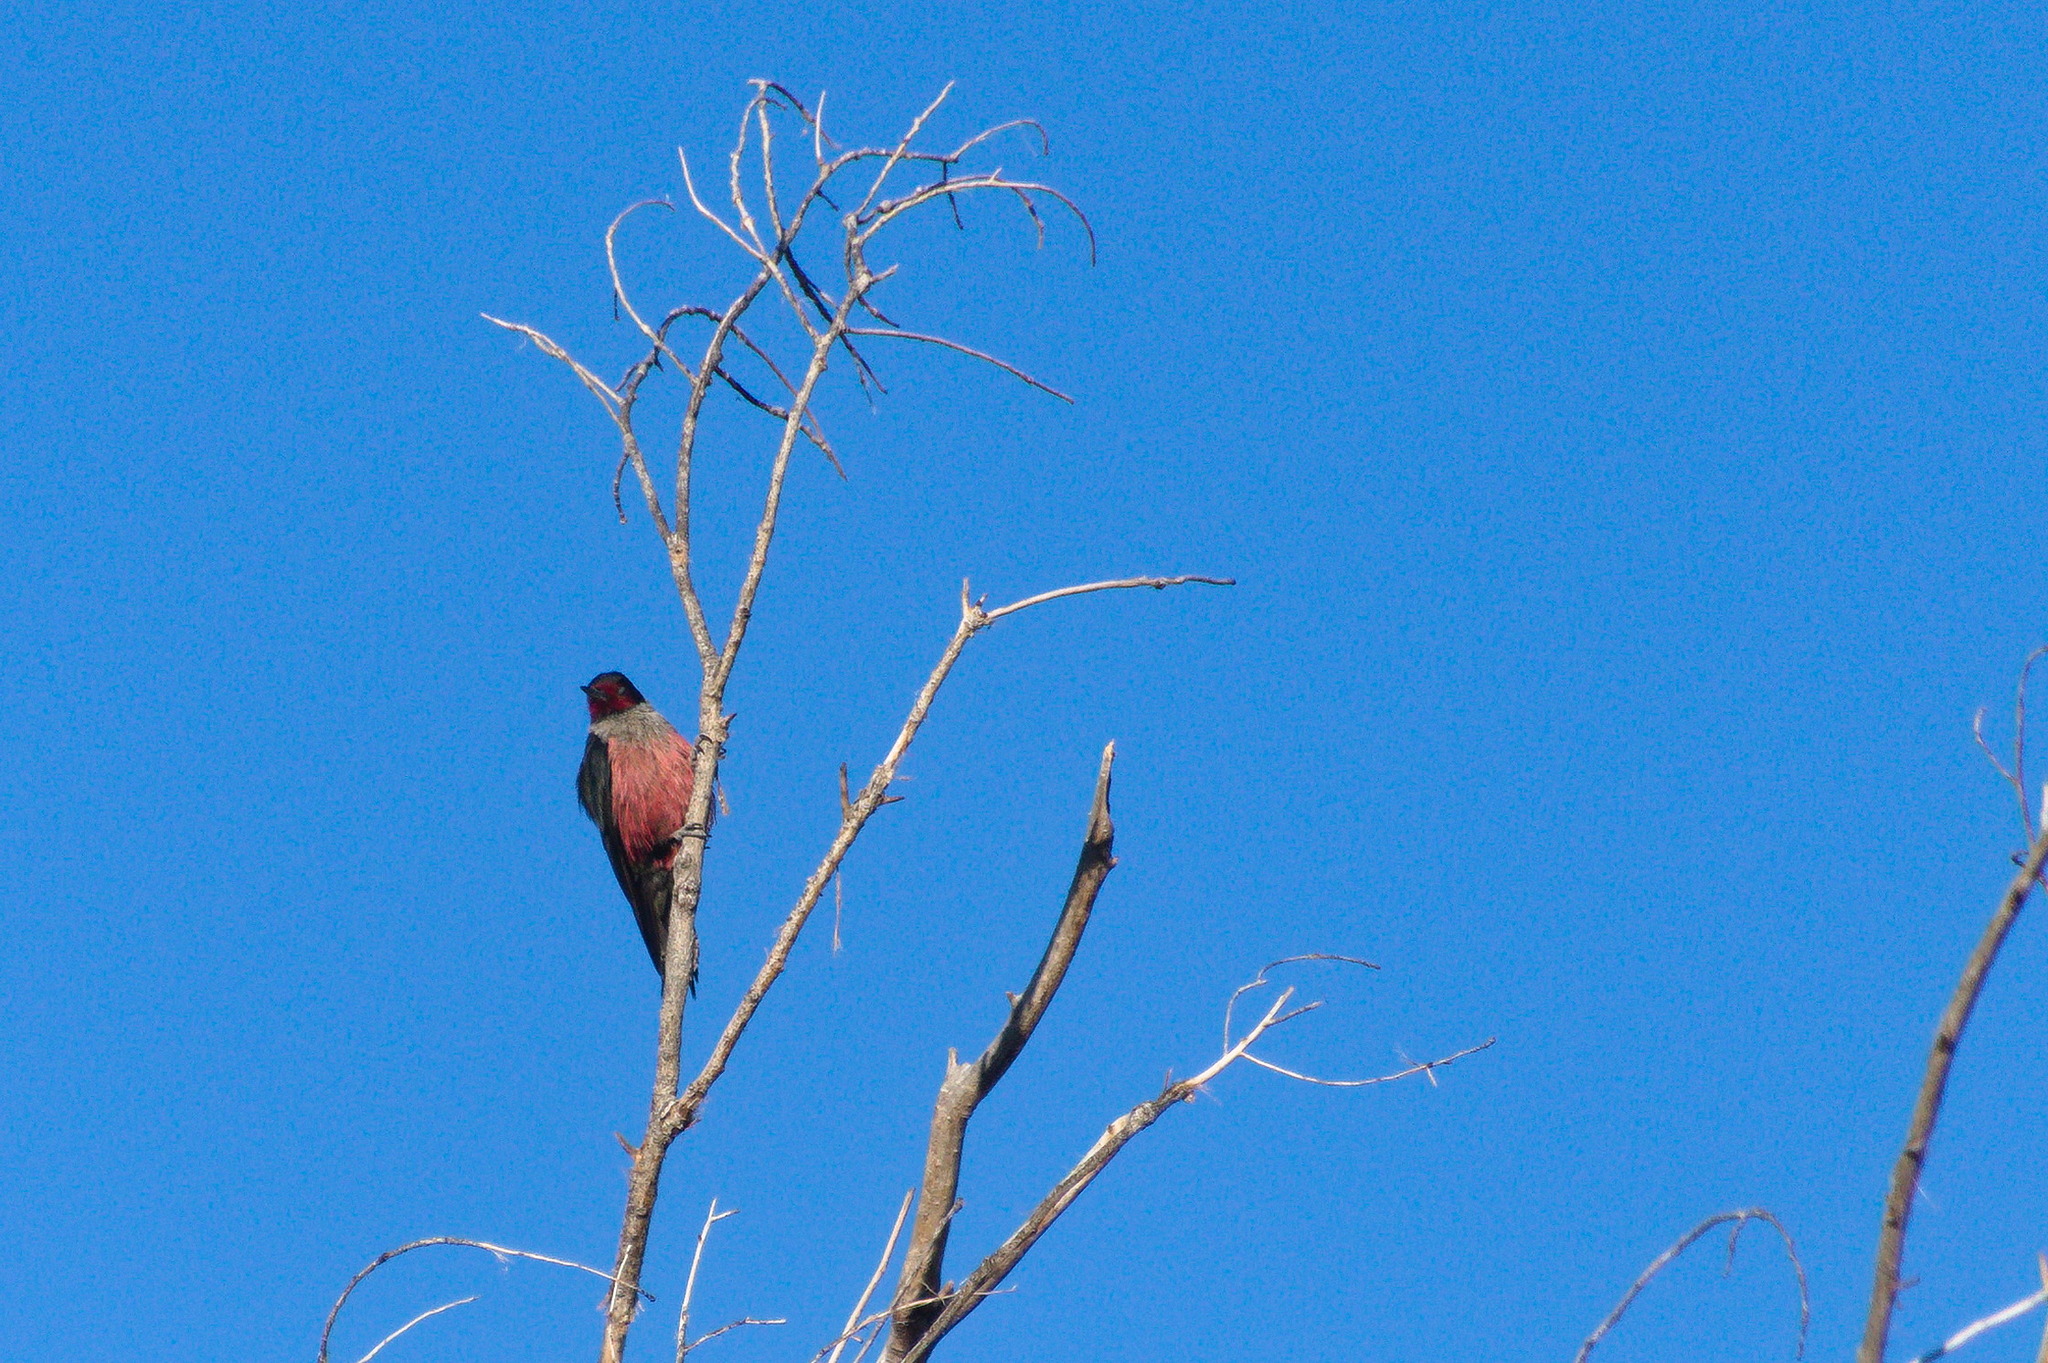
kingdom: Animalia
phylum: Chordata
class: Aves
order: Piciformes
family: Picidae
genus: Melanerpes
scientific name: Melanerpes lewis
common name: Lewis's woodpecker
